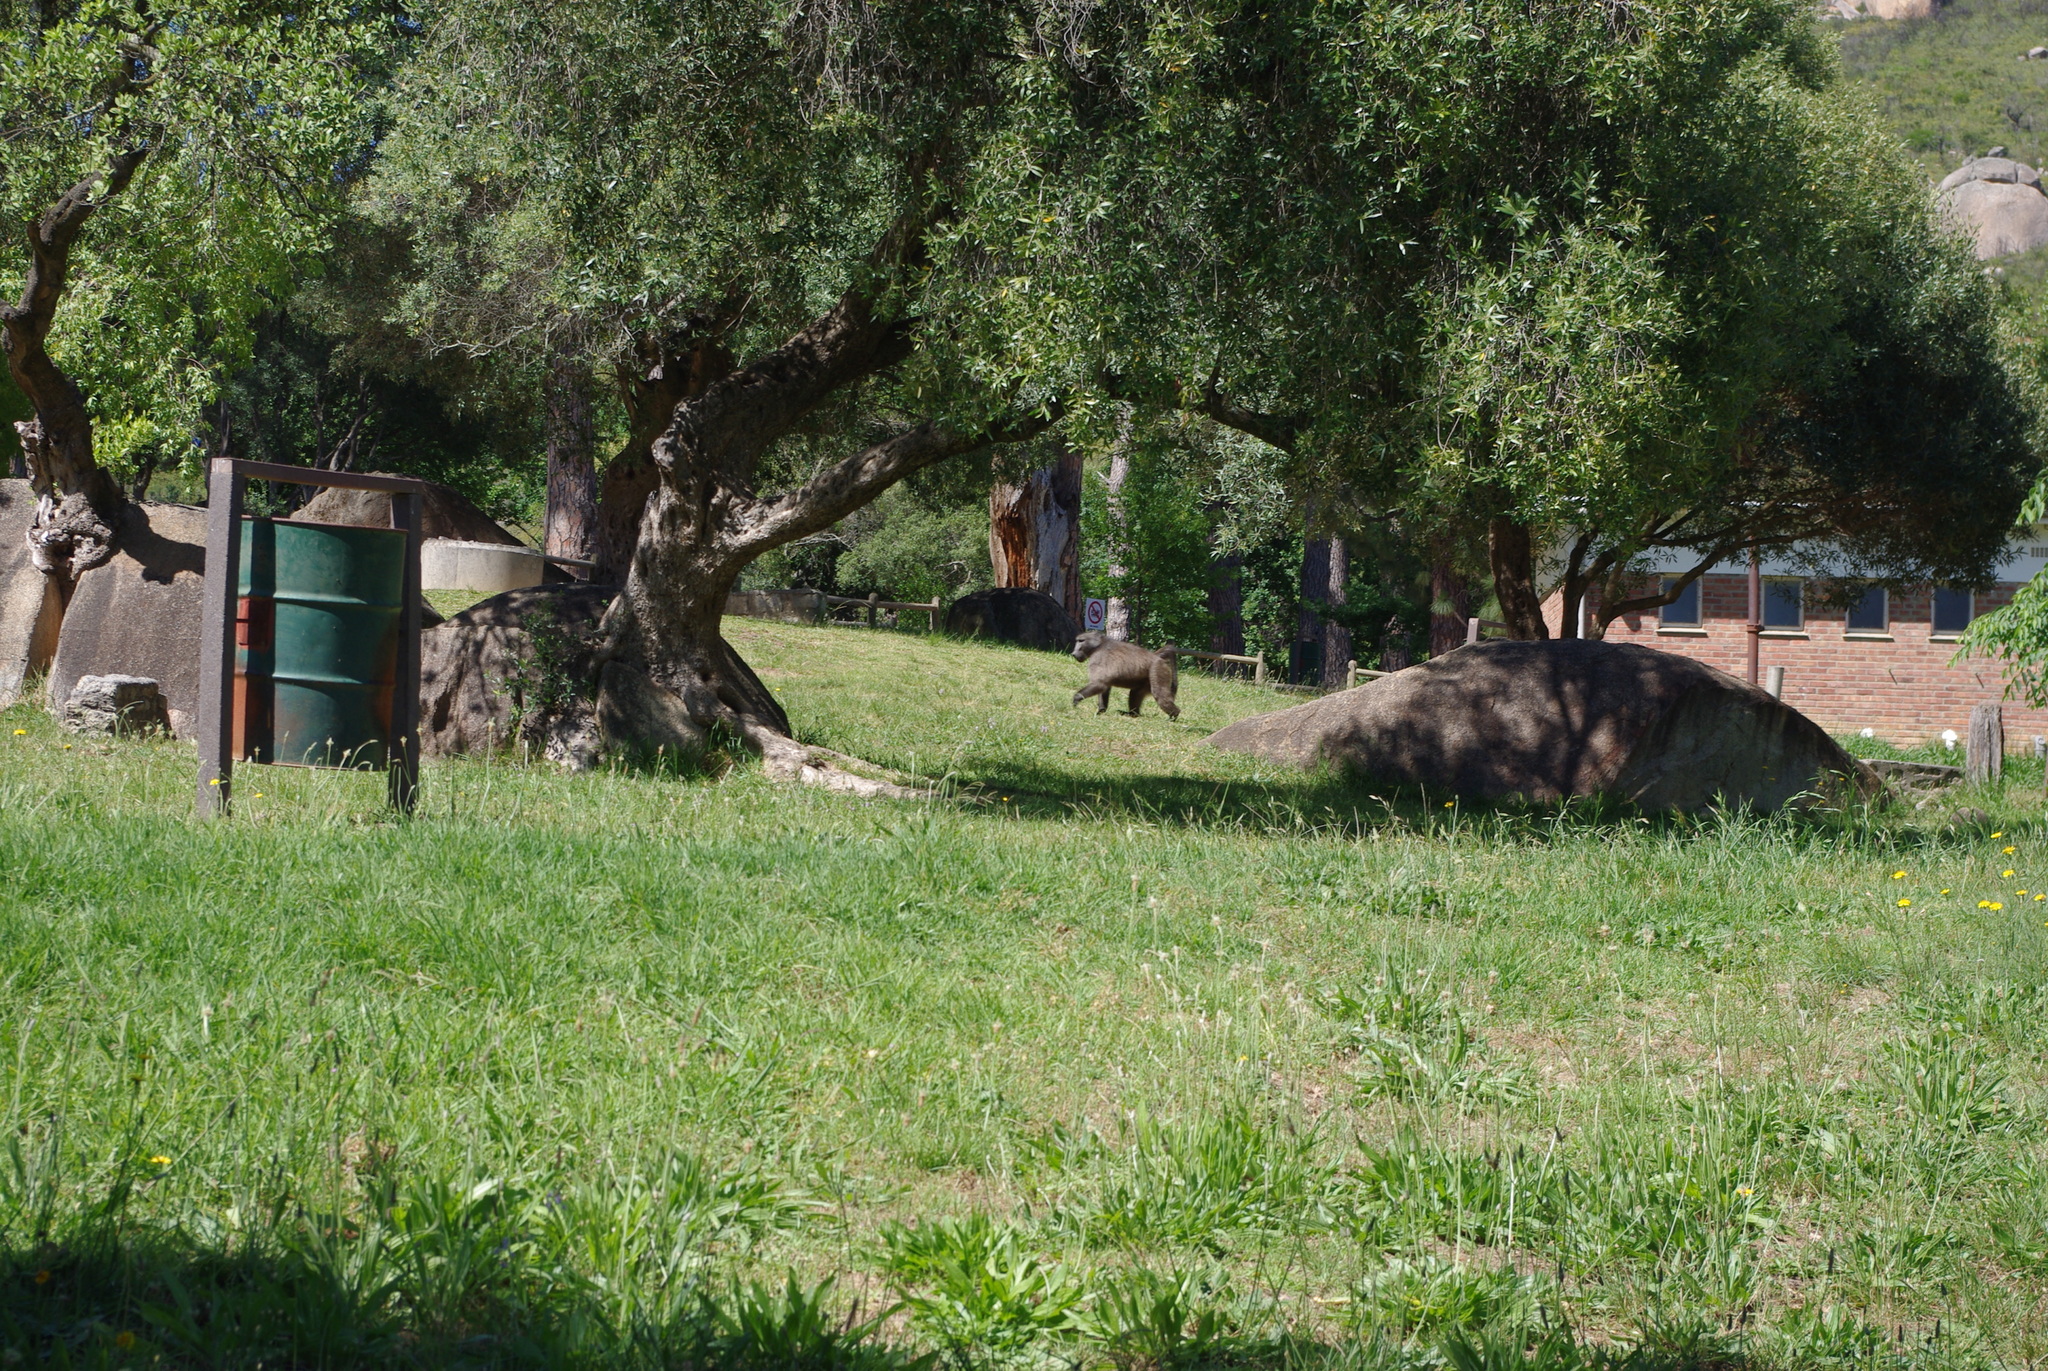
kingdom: Animalia
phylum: Chordata
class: Mammalia
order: Primates
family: Cercopithecidae
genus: Papio
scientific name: Papio ursinus
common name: Chacma baboon
